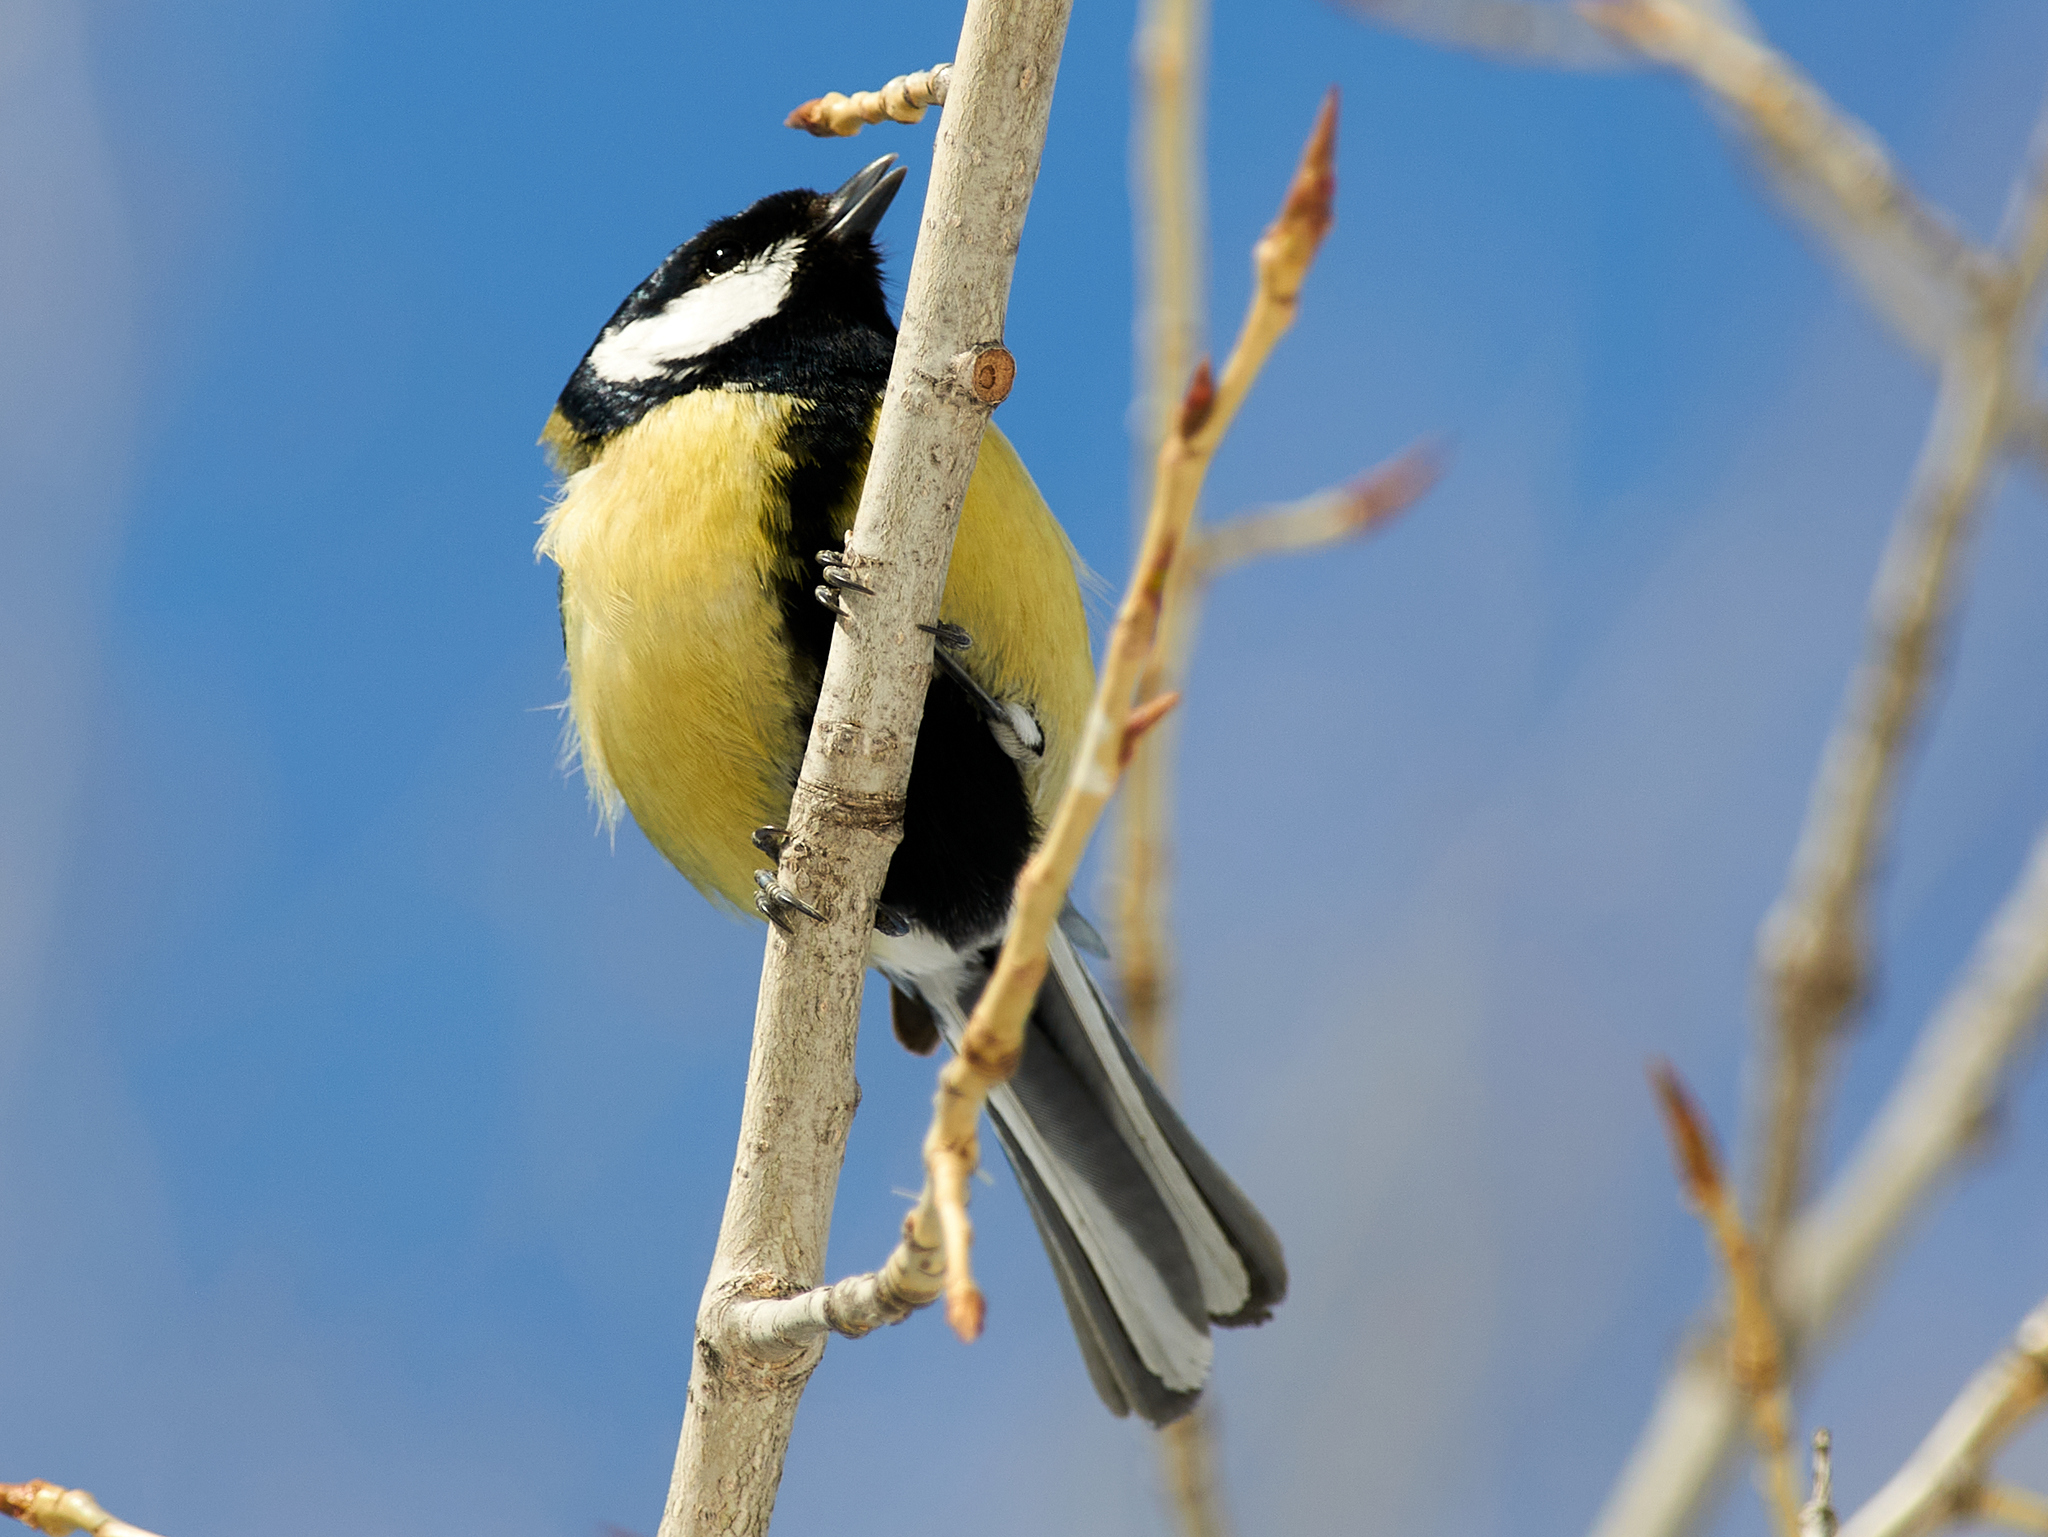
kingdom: Animalia
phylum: Chordata
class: Aves
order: Passeriformes
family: Paridae
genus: Parus
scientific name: Parus major
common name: Great tit
